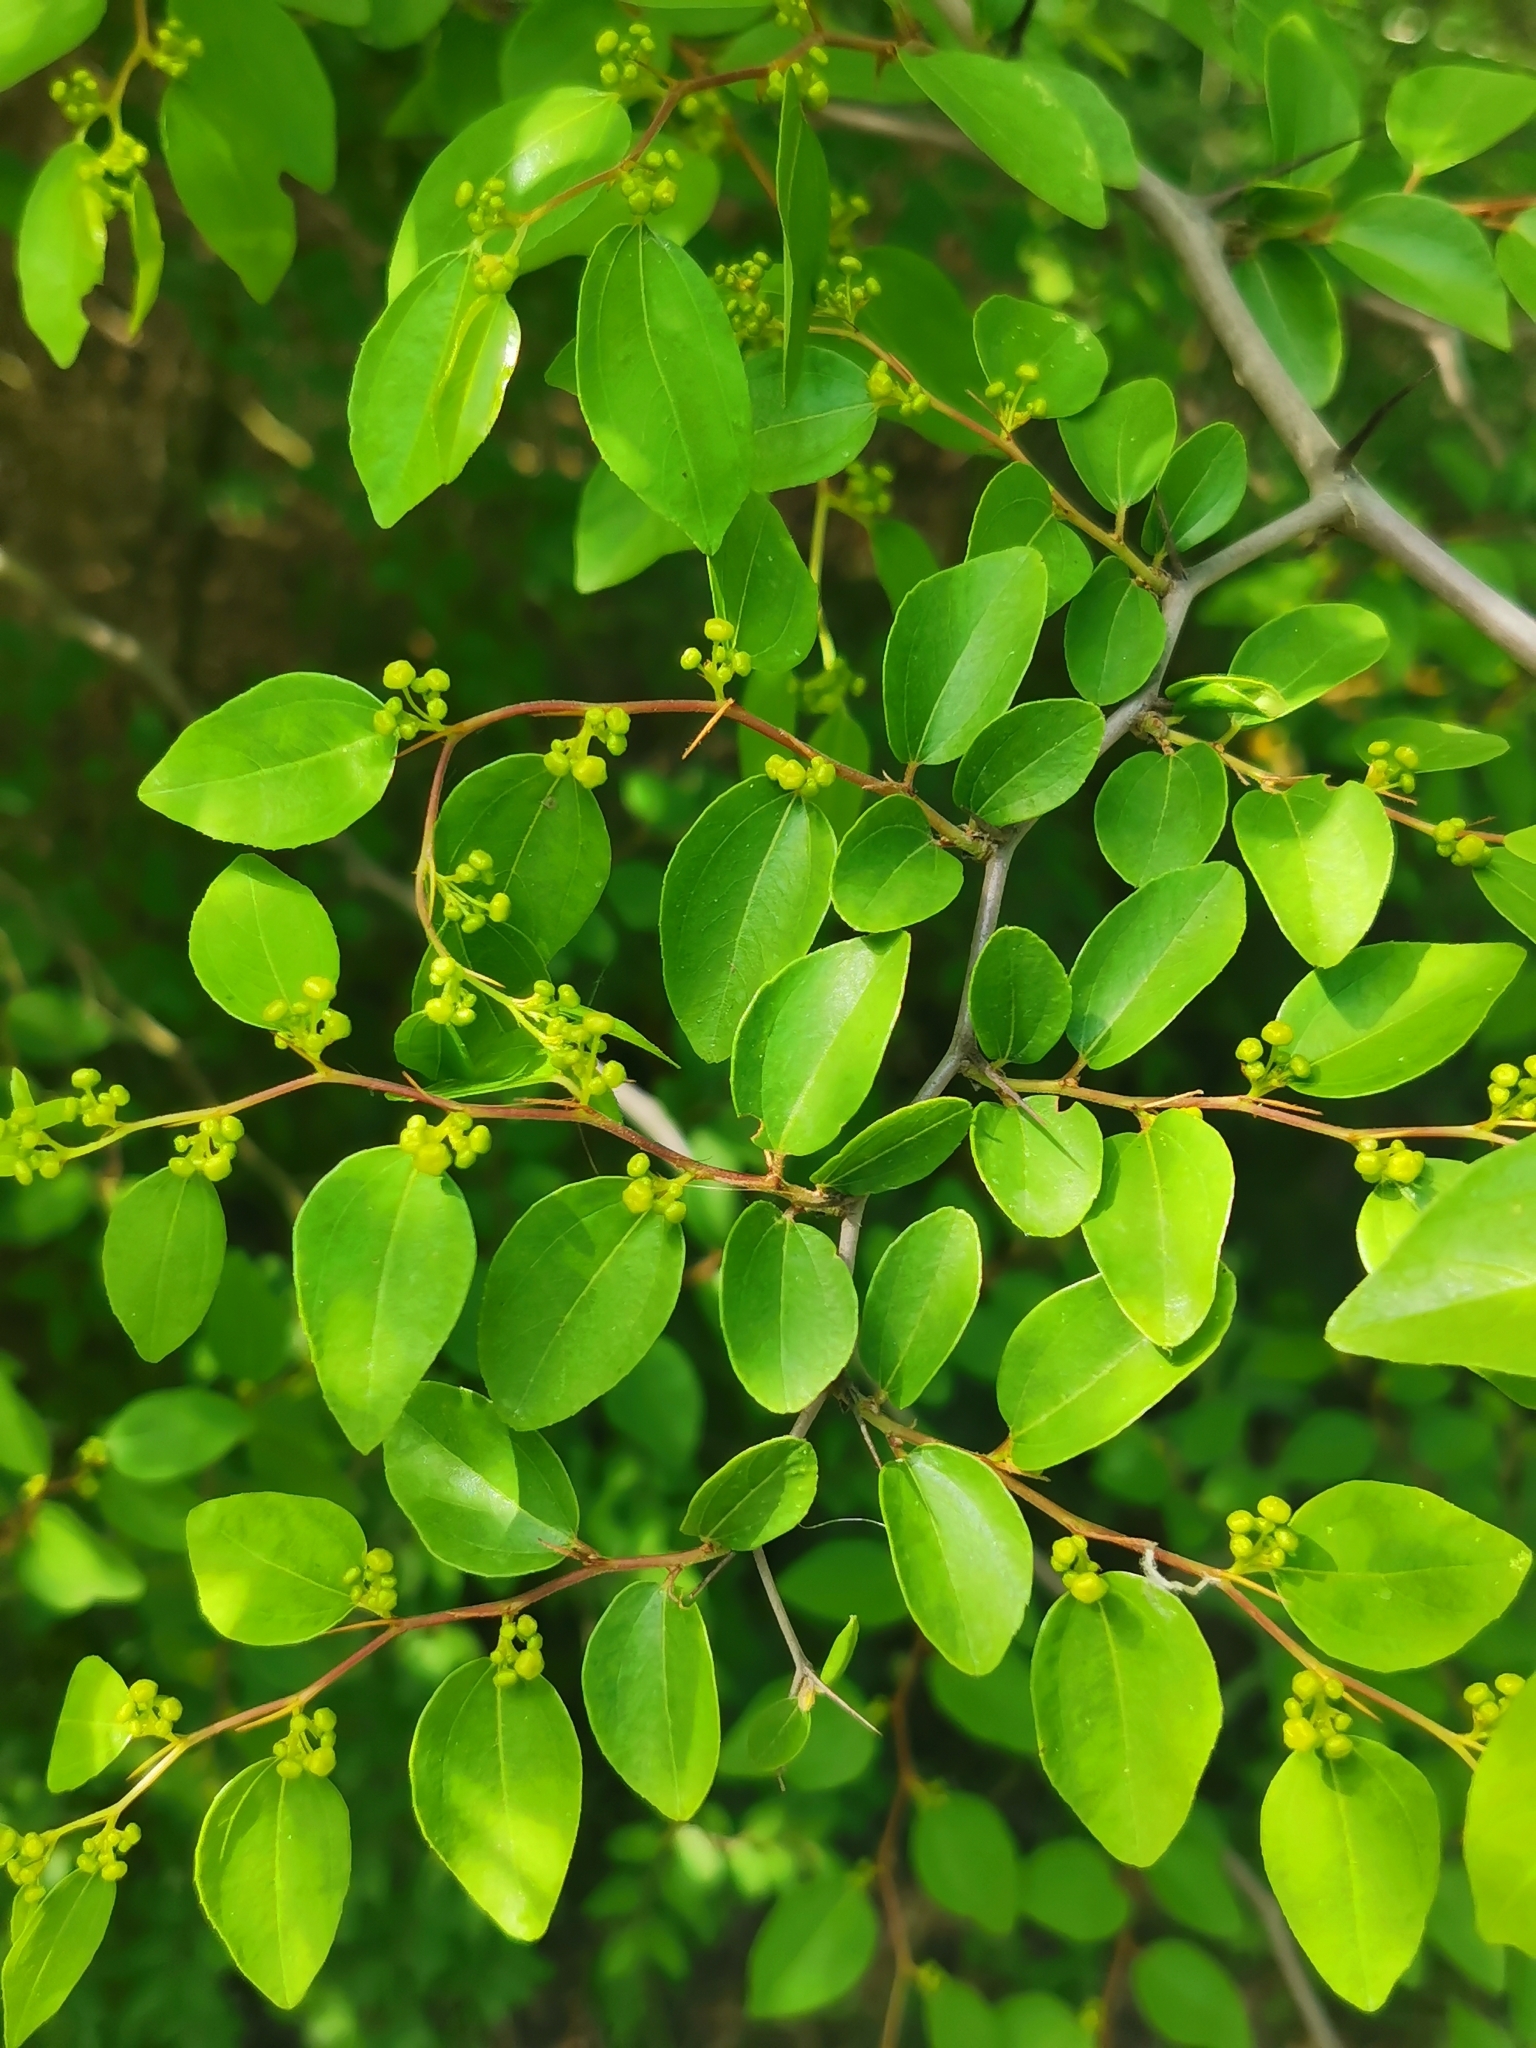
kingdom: Plantae
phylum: Tracheophyta
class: Magnoliopsida
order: Rosales
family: Rhamnaceae
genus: Paliurus
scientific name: Paliurus spina-christi
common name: Jeruselem thorn
